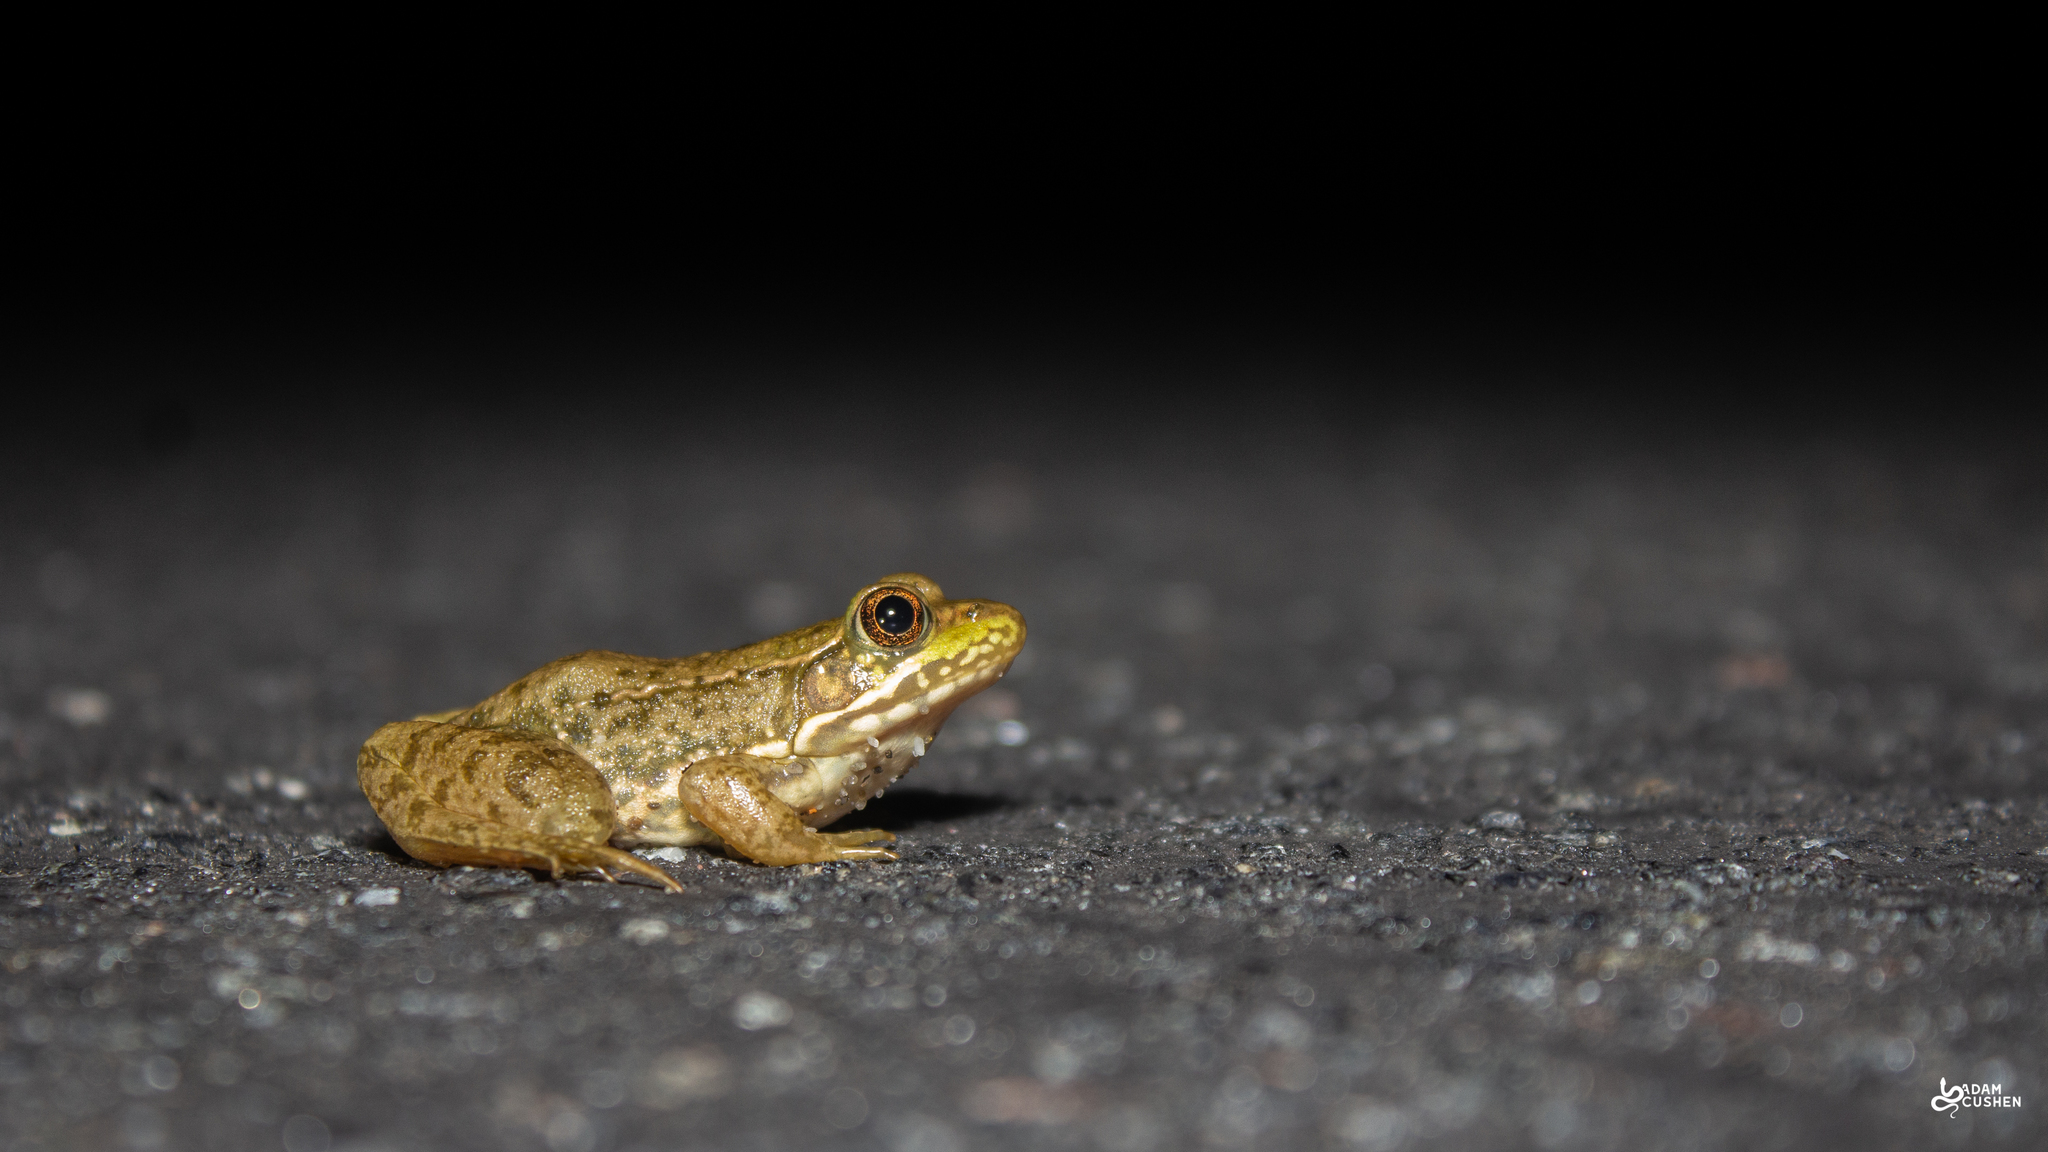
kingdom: Animalia
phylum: Chordata
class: Amphibia
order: Anura
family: Ranidae
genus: Lithobates
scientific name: Lithobates clamitans
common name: Green frog
